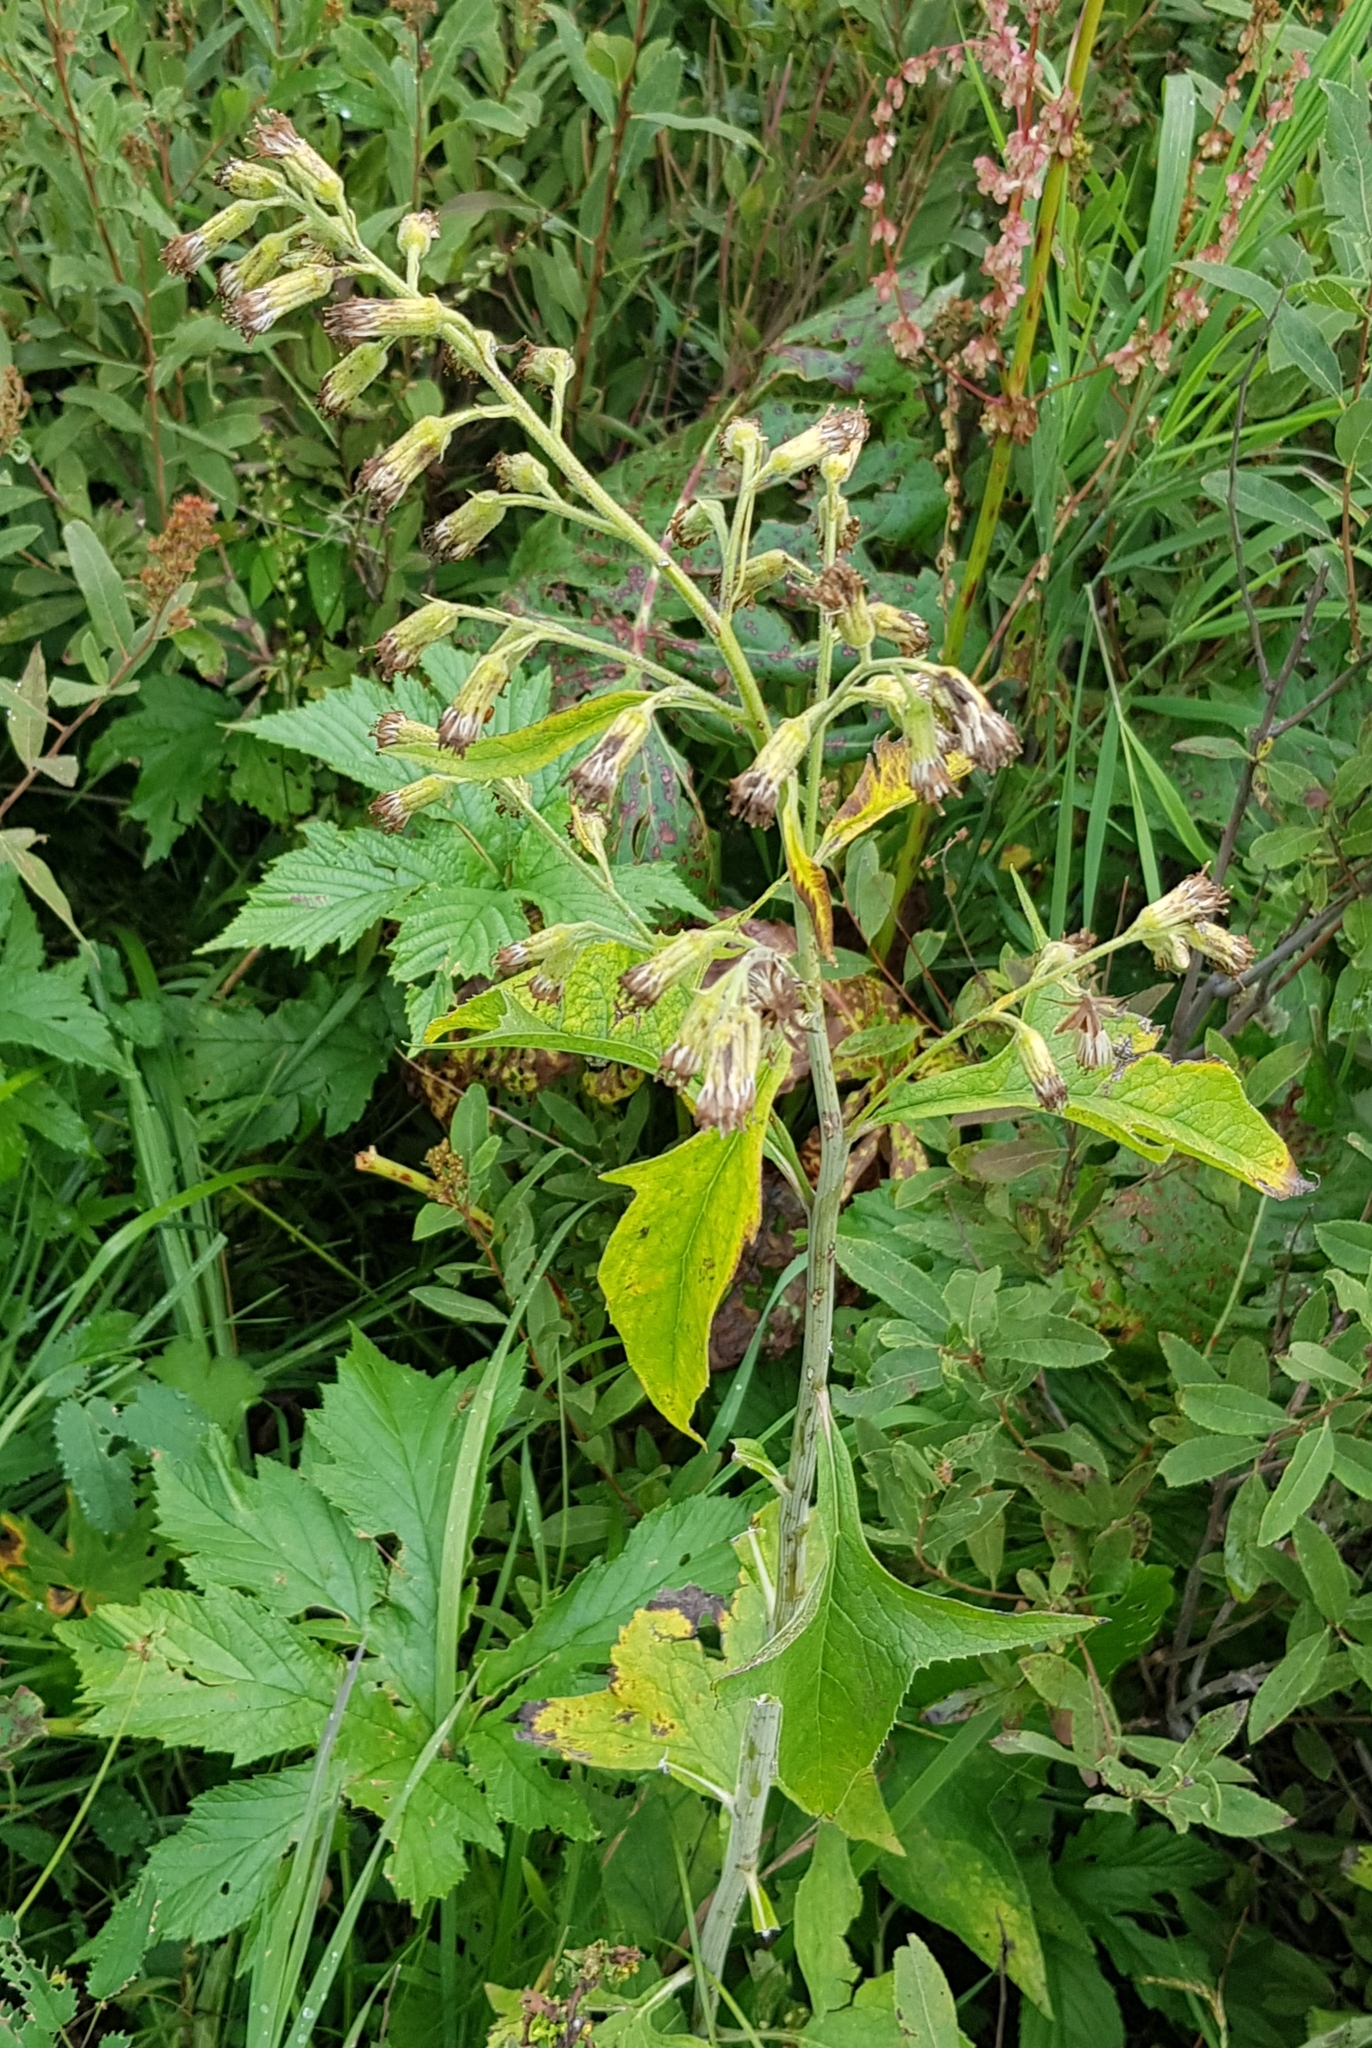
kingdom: Plantae
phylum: Tracheophyta
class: Magnoliopsida
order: Rosales
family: Rosaceae
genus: Spiraea
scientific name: Spiraea salicifolia
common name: Bridewort
